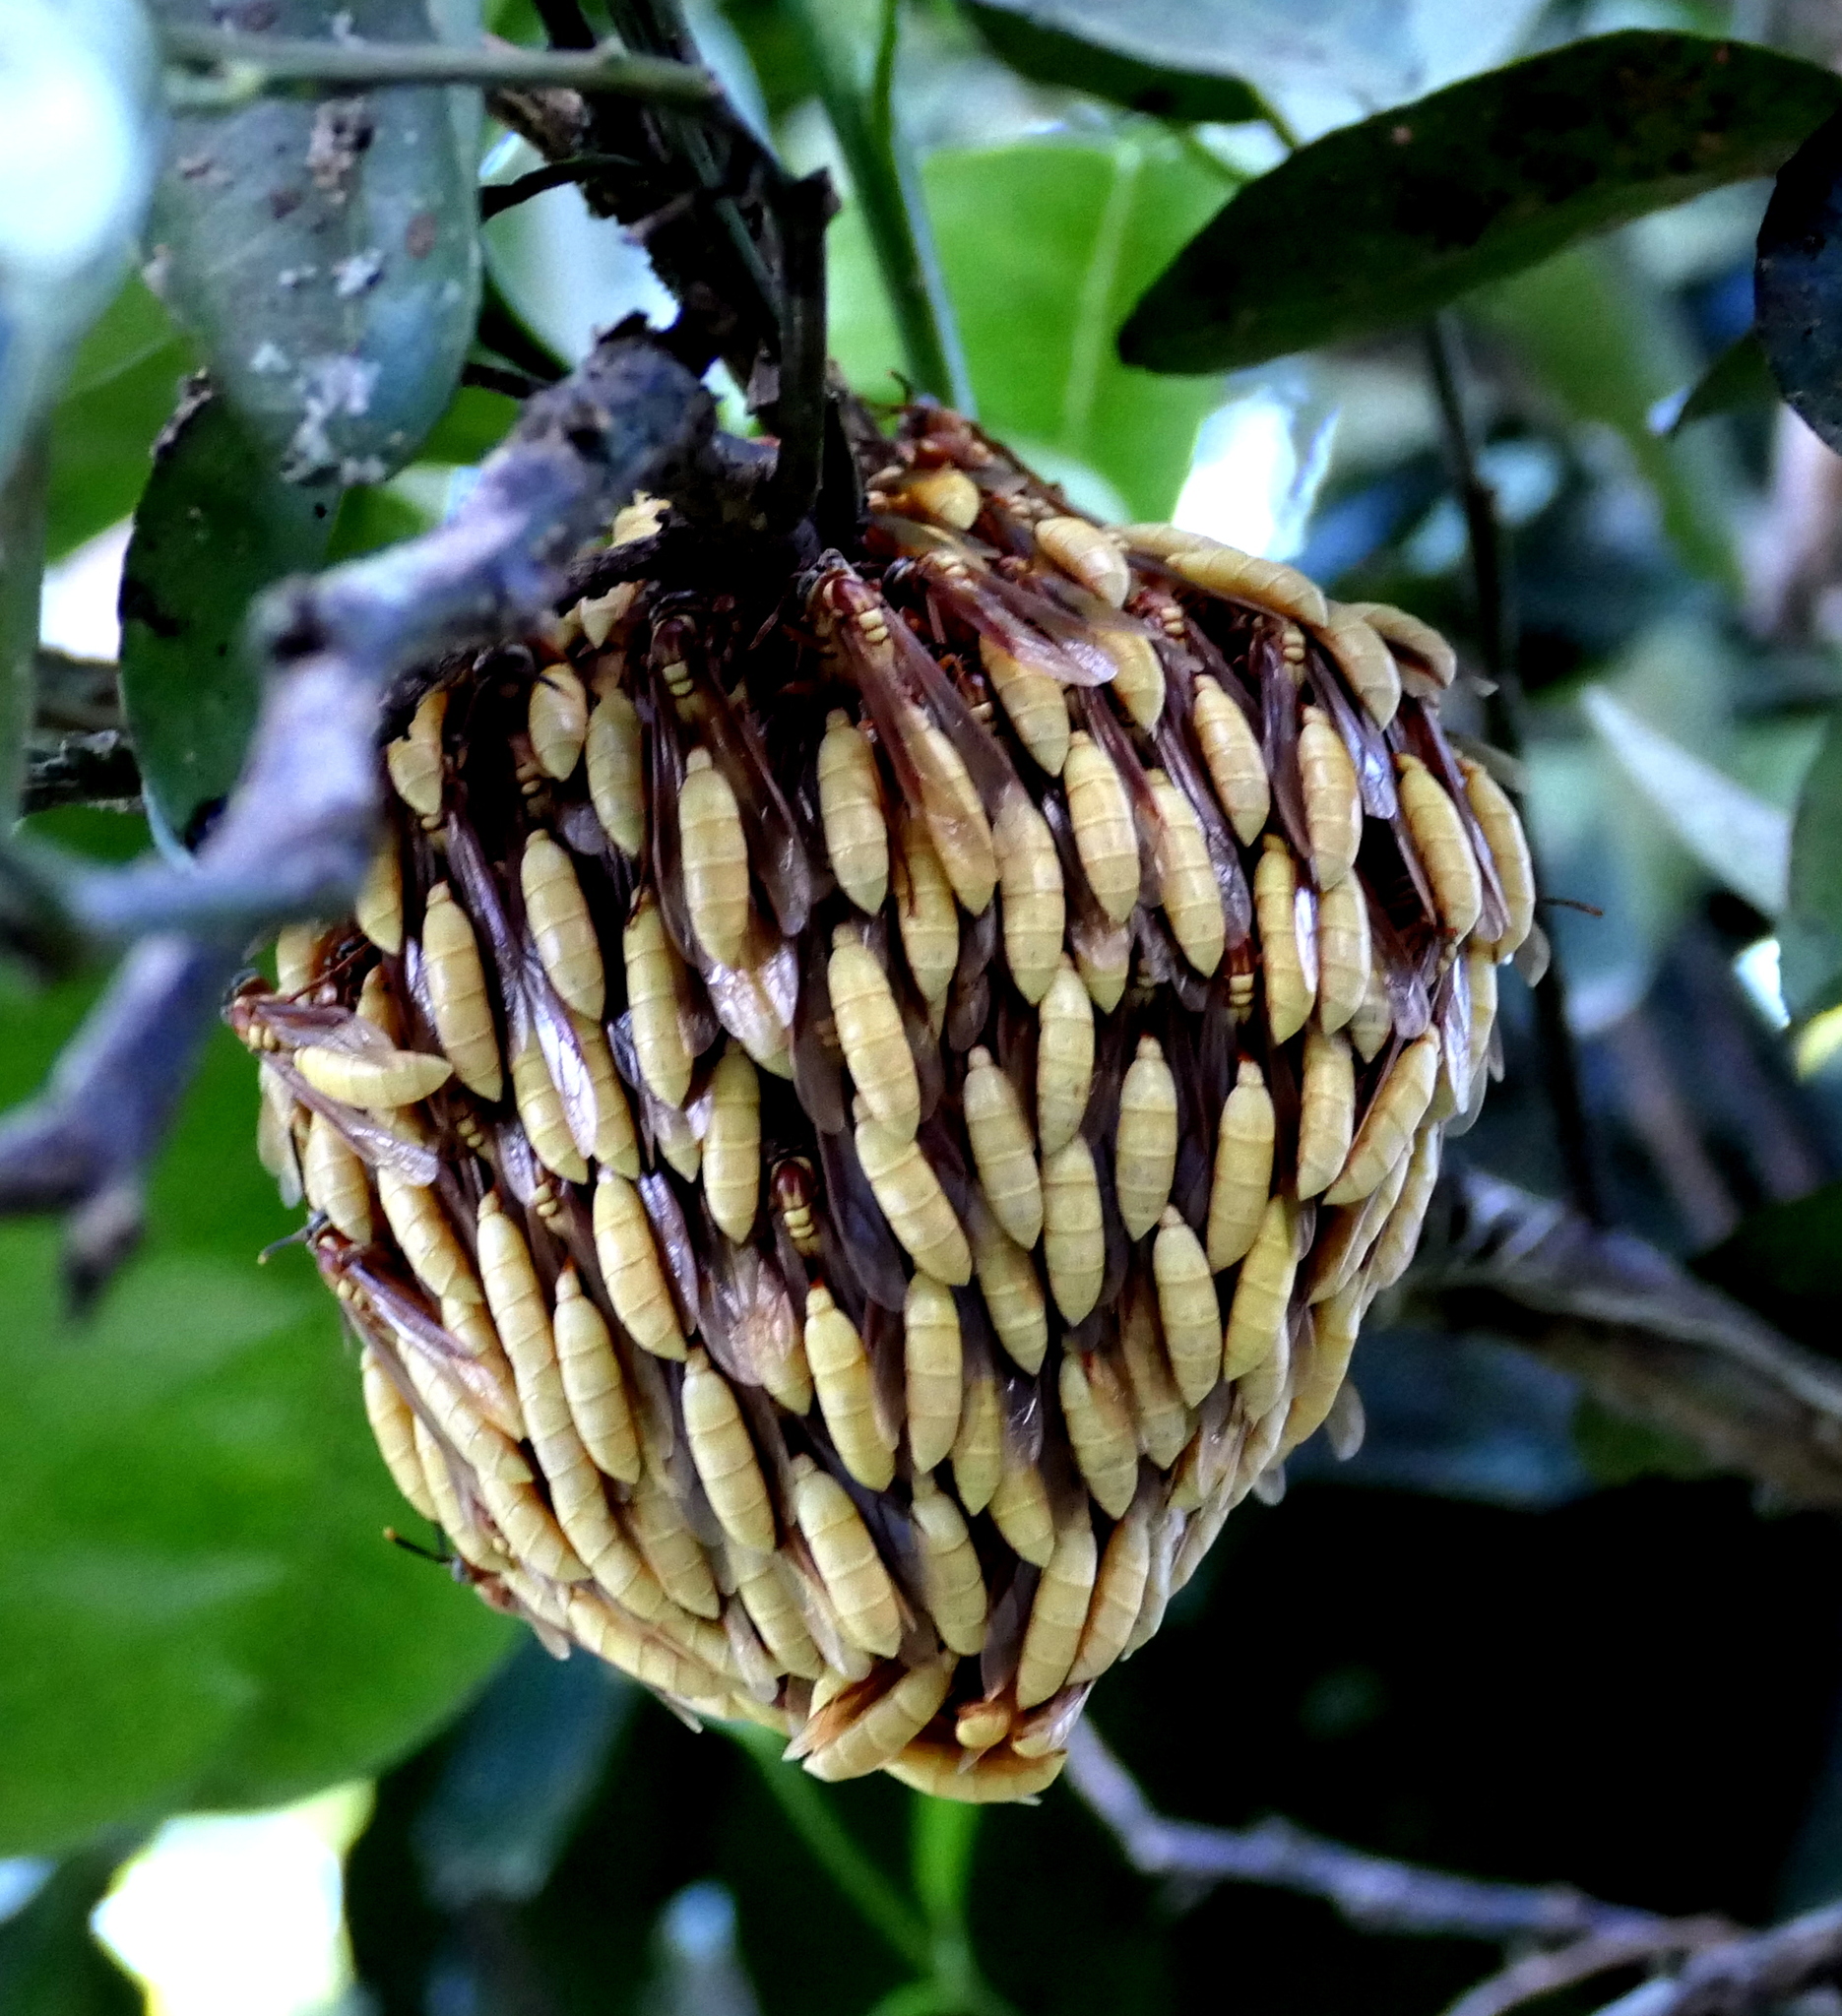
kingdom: Animalia
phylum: Arthropoda
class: Insecta
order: Hymenoptera
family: Vespidae
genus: Apoica
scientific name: Apoica flavissima
